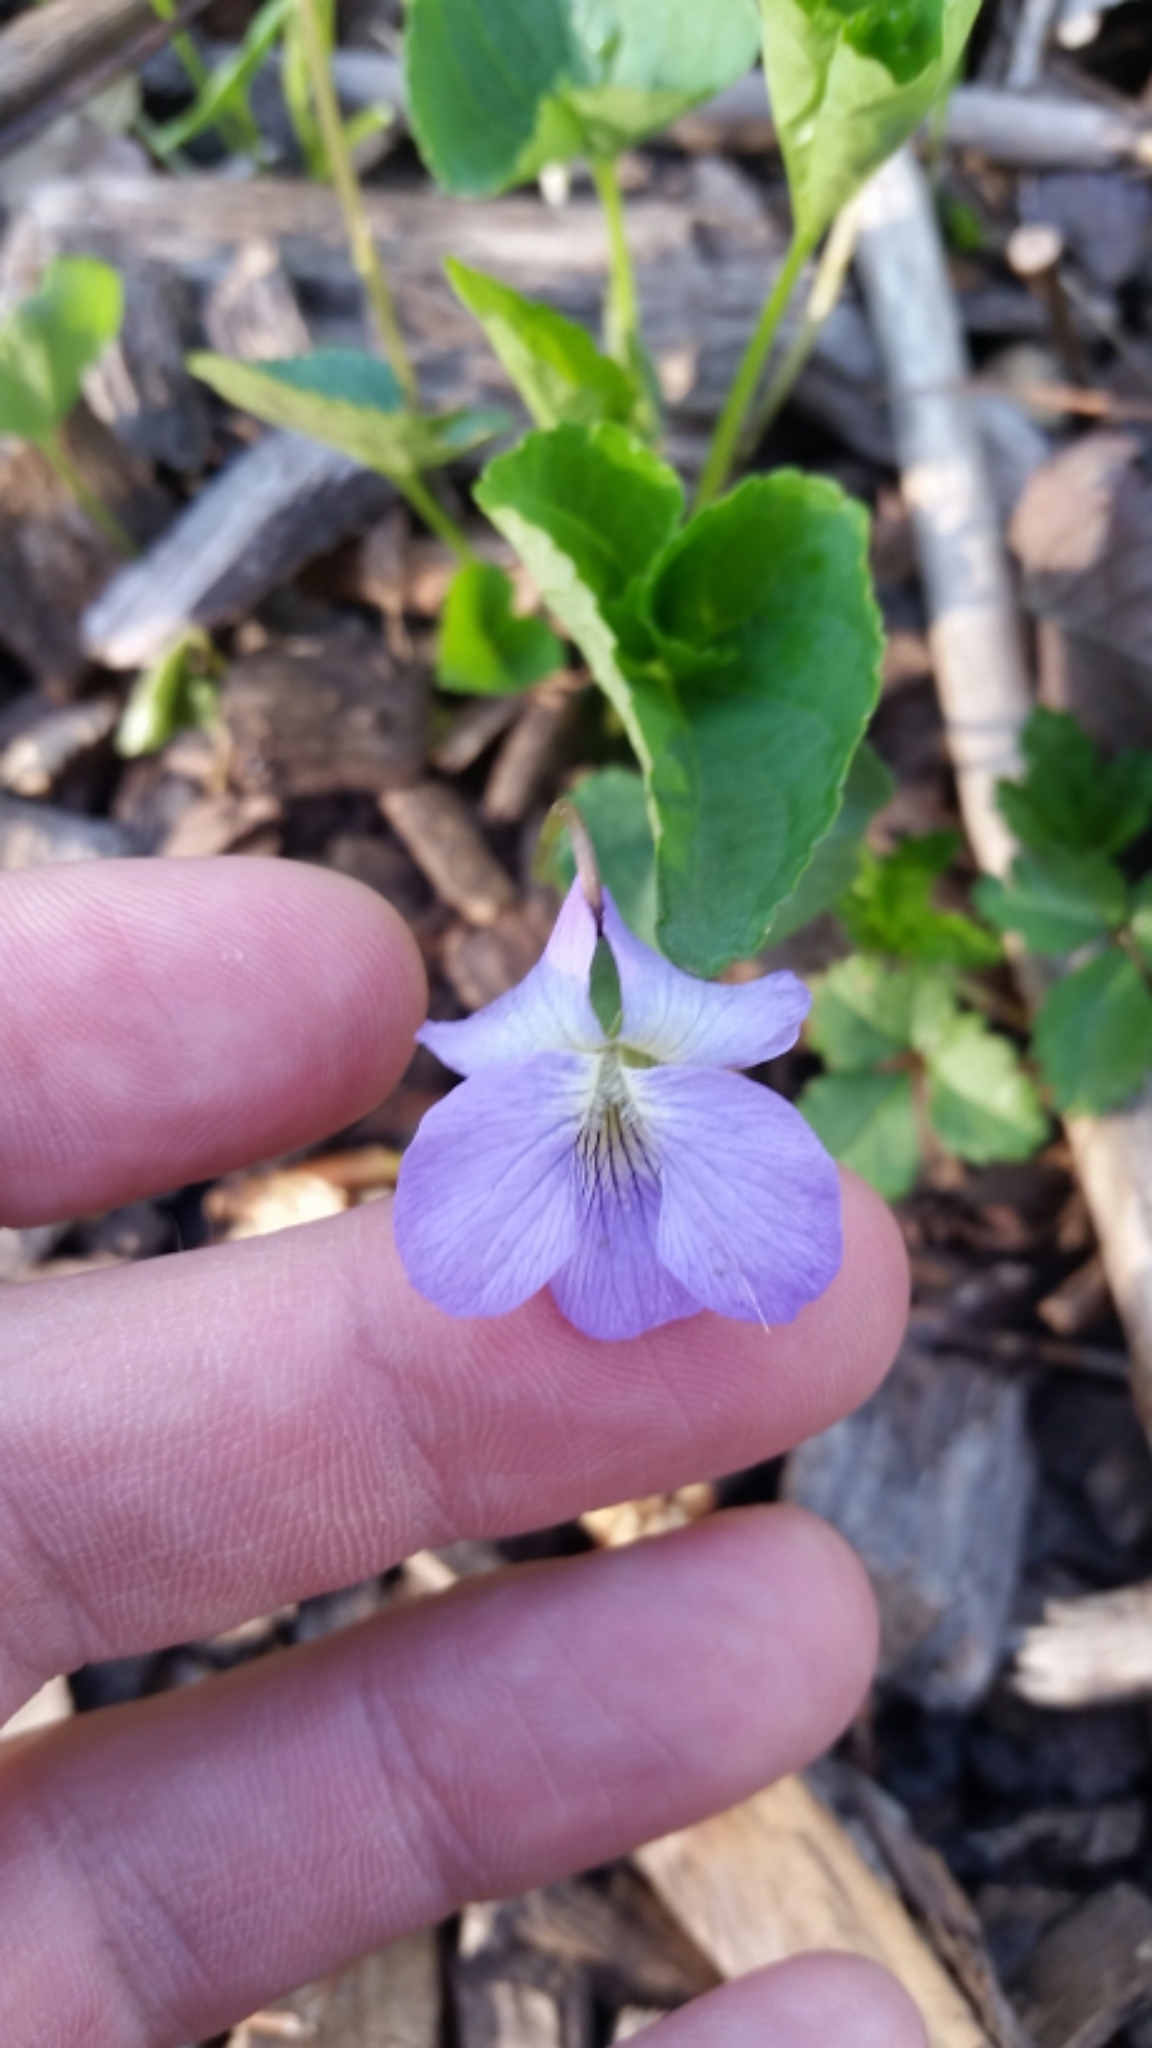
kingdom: Plantae
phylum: Tracheophyta
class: Magnoliopsida
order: Malpighiales
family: Violaceae
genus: Viola
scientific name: Viola sororia
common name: Dooryard violet
